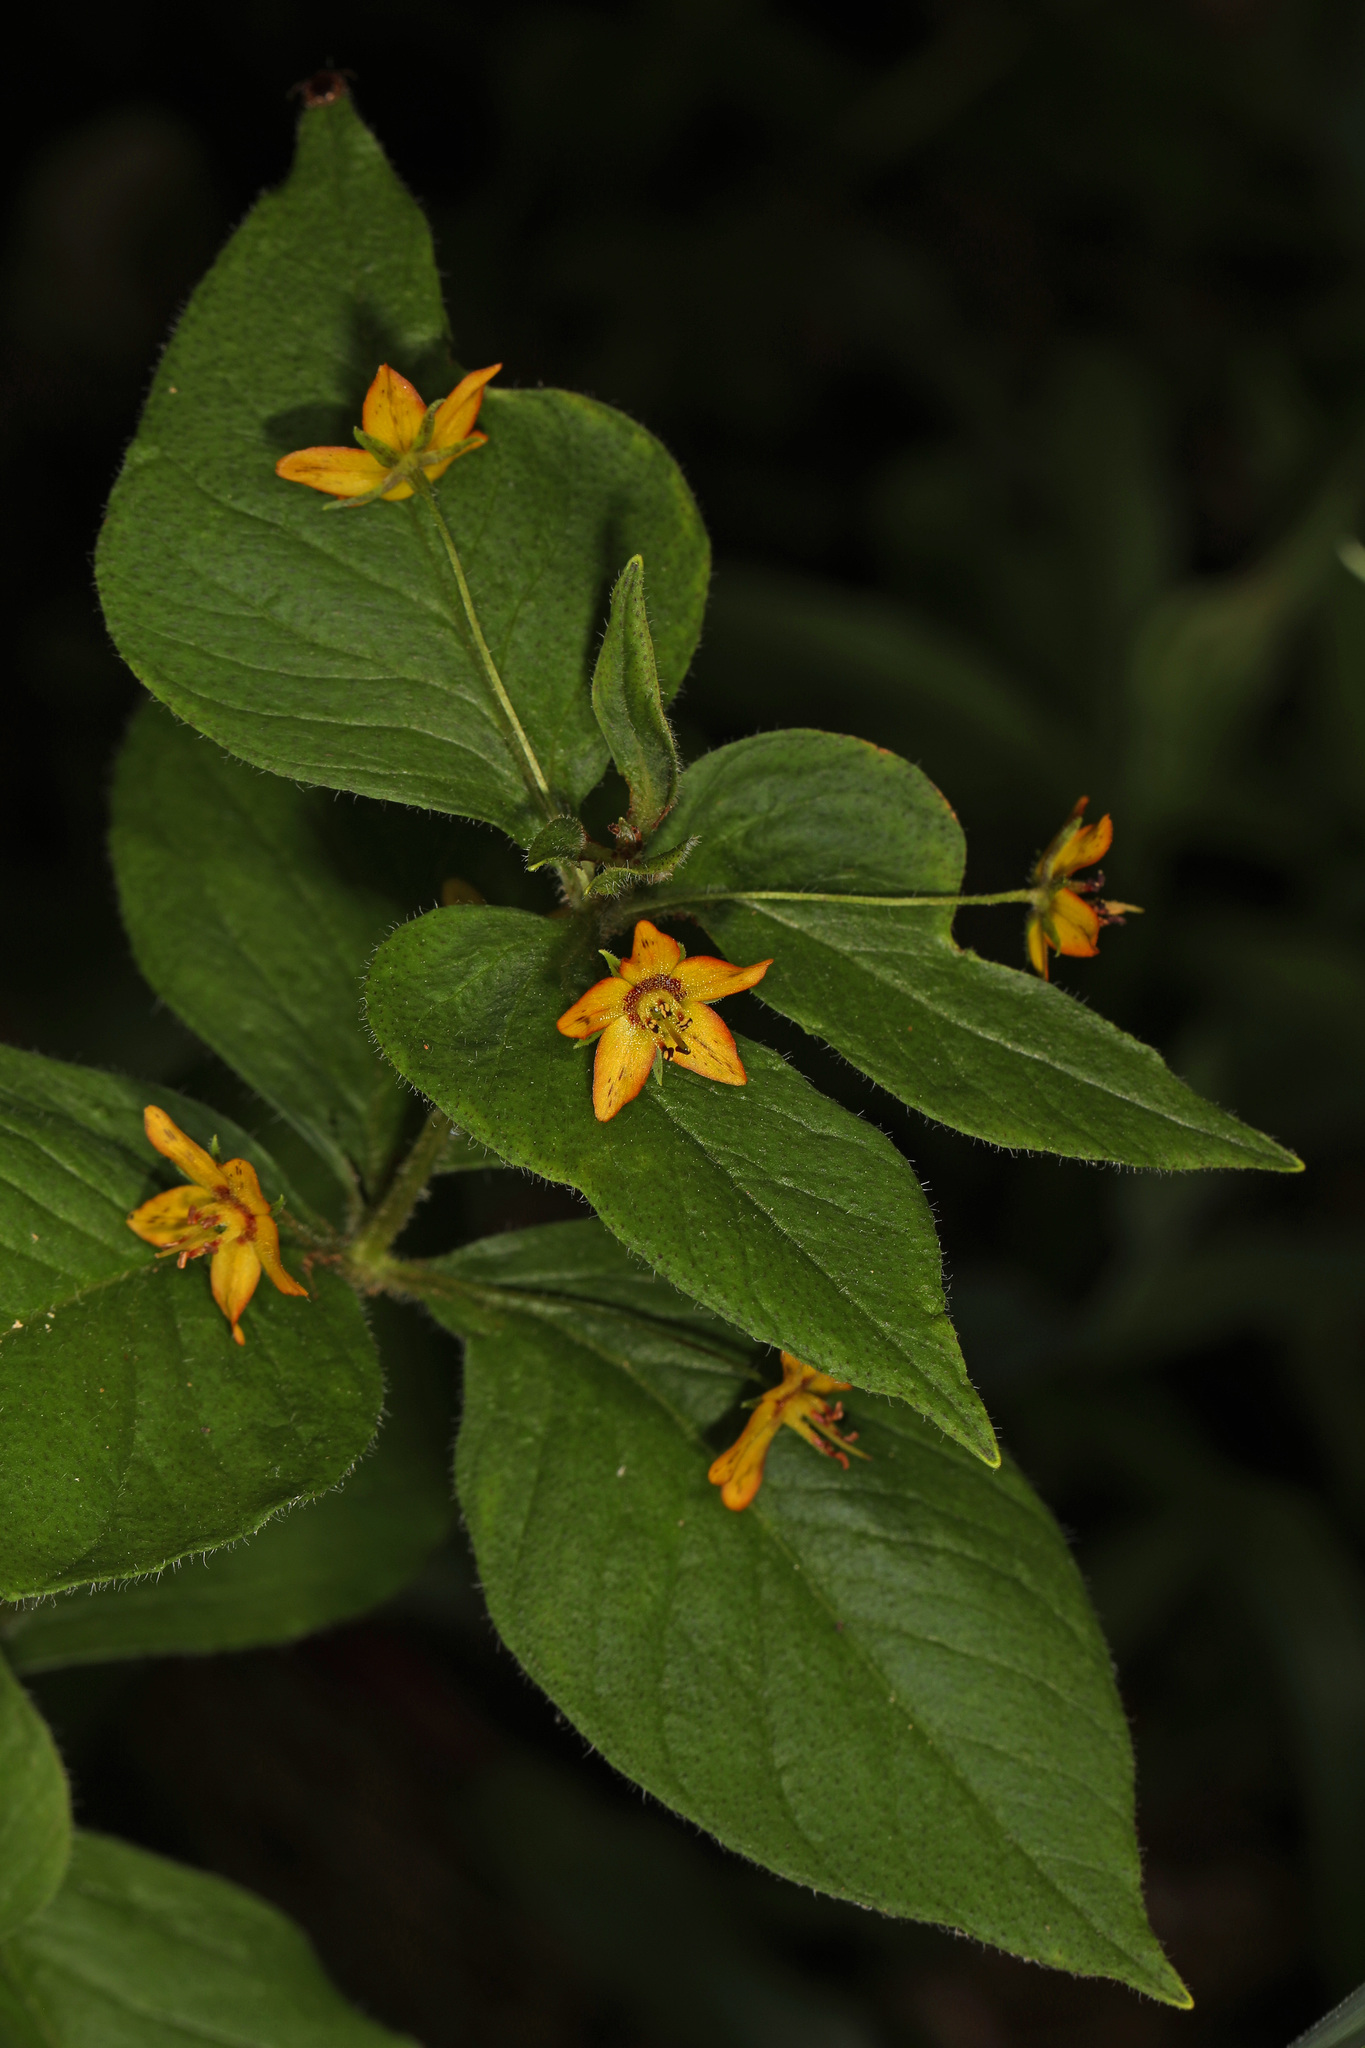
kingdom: Plantae
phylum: Tracheophyta
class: Magnoliopsida
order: Ericales
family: Primulaceae
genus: Lysimachia
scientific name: Lysimachia quadrifolia
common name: Whorled loosestrife
